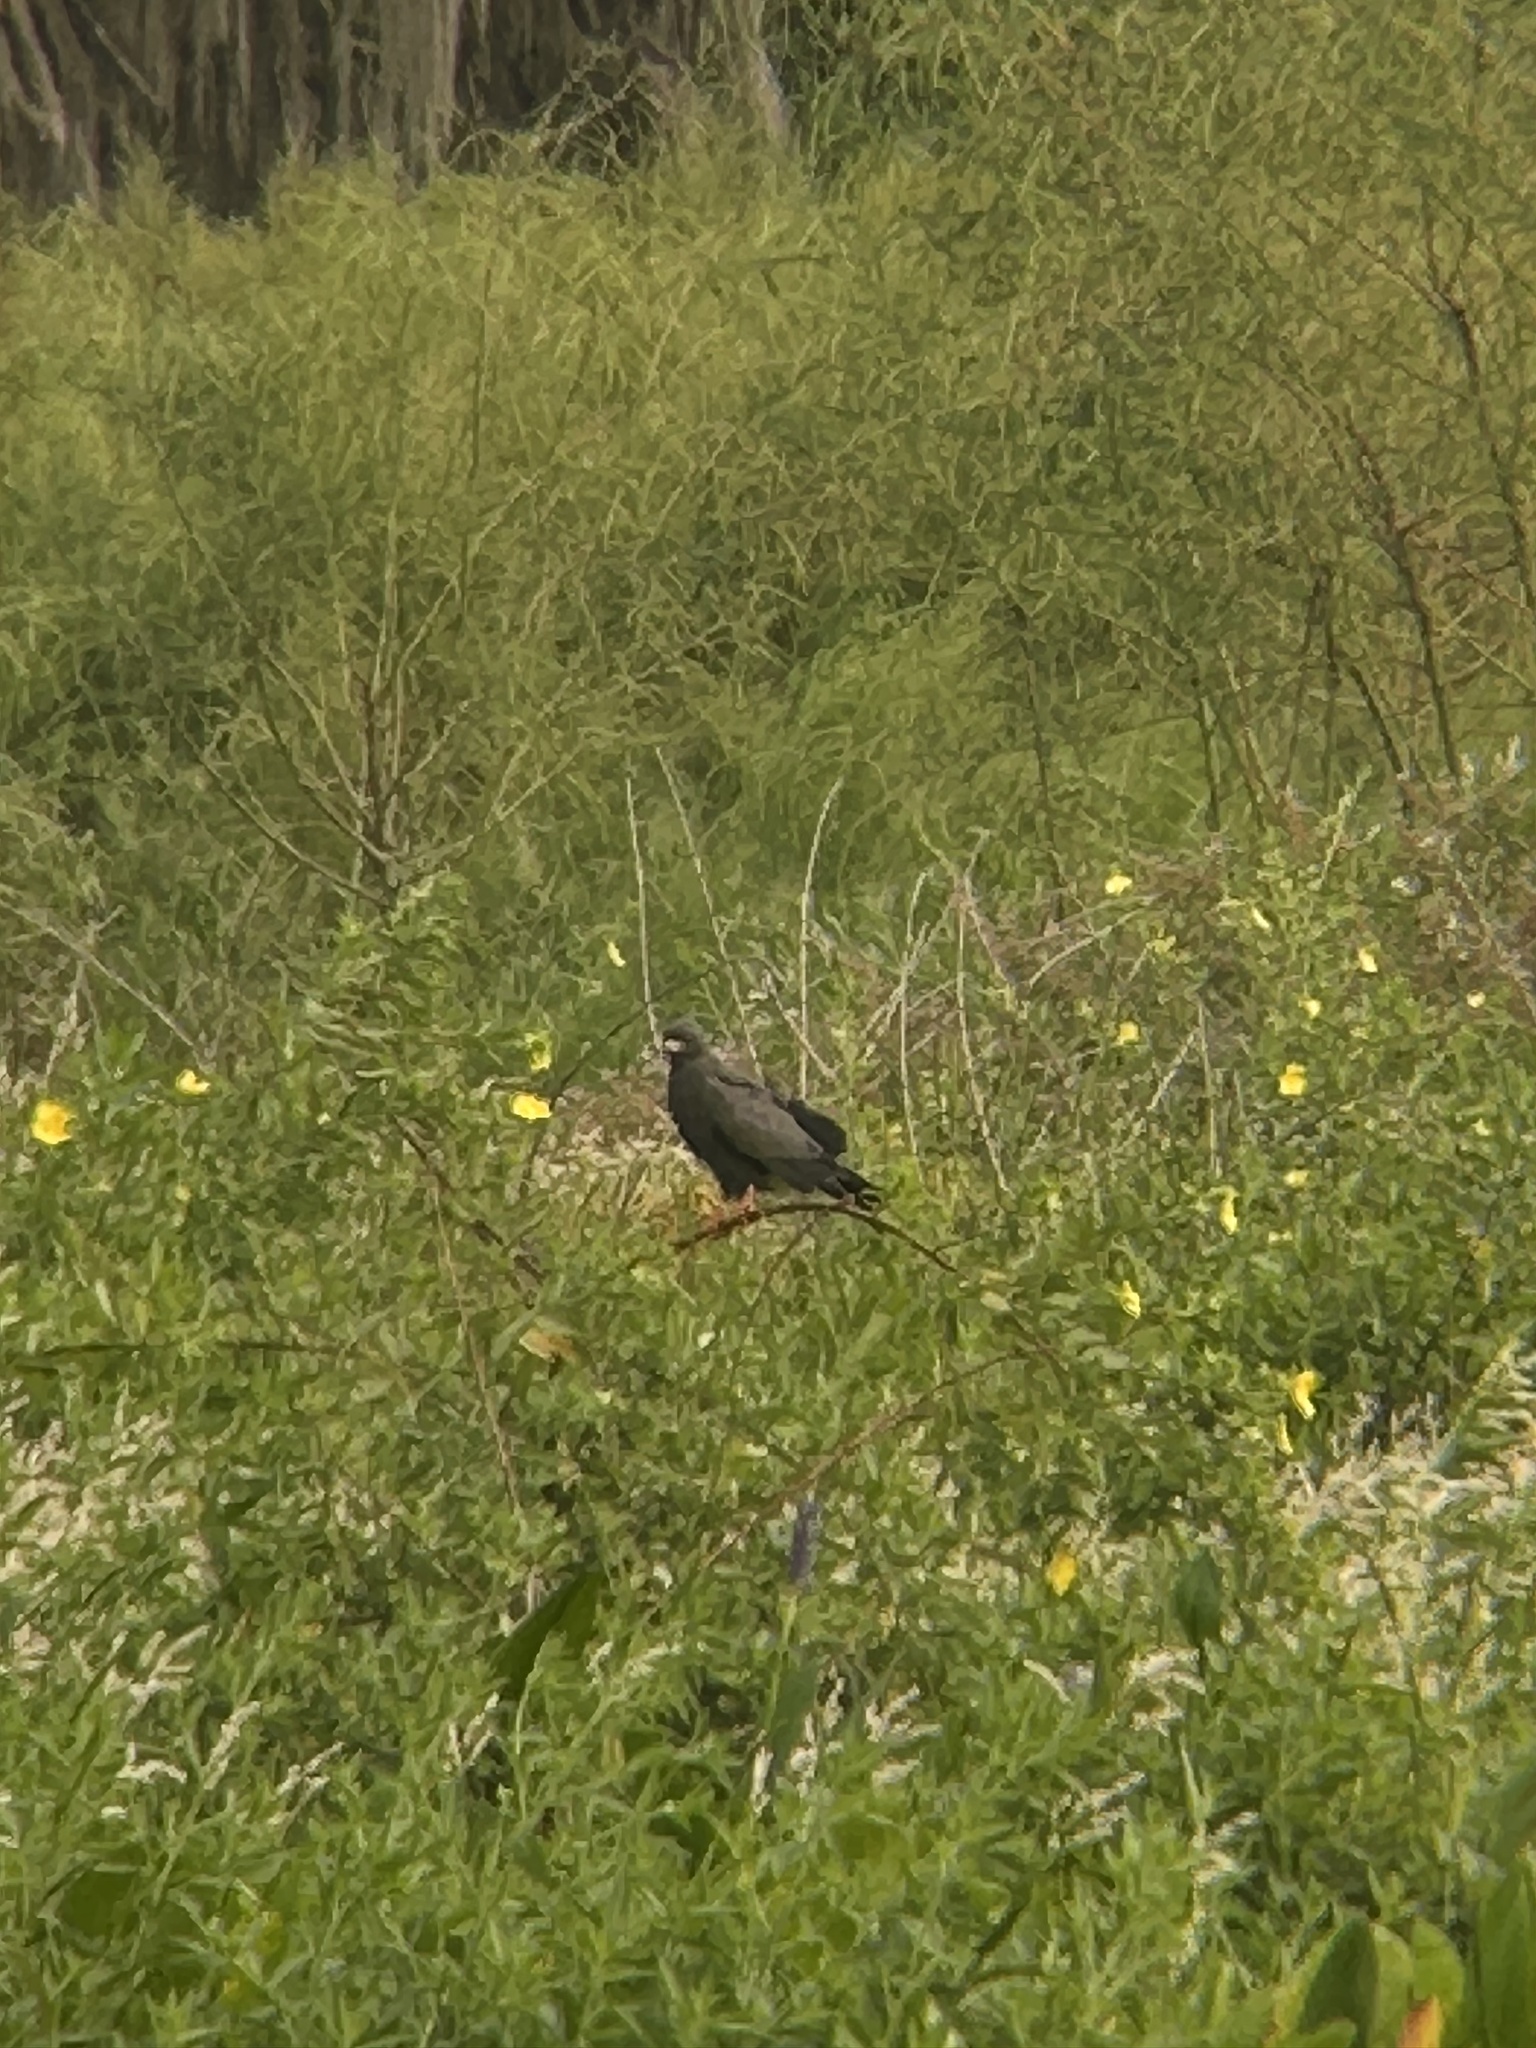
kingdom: Animalia
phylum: Chordata
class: Aves
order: Accipitriformes
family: Accipitridae
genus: Rostrhamus
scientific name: Rostrhamus sociabilis
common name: Snail kite
